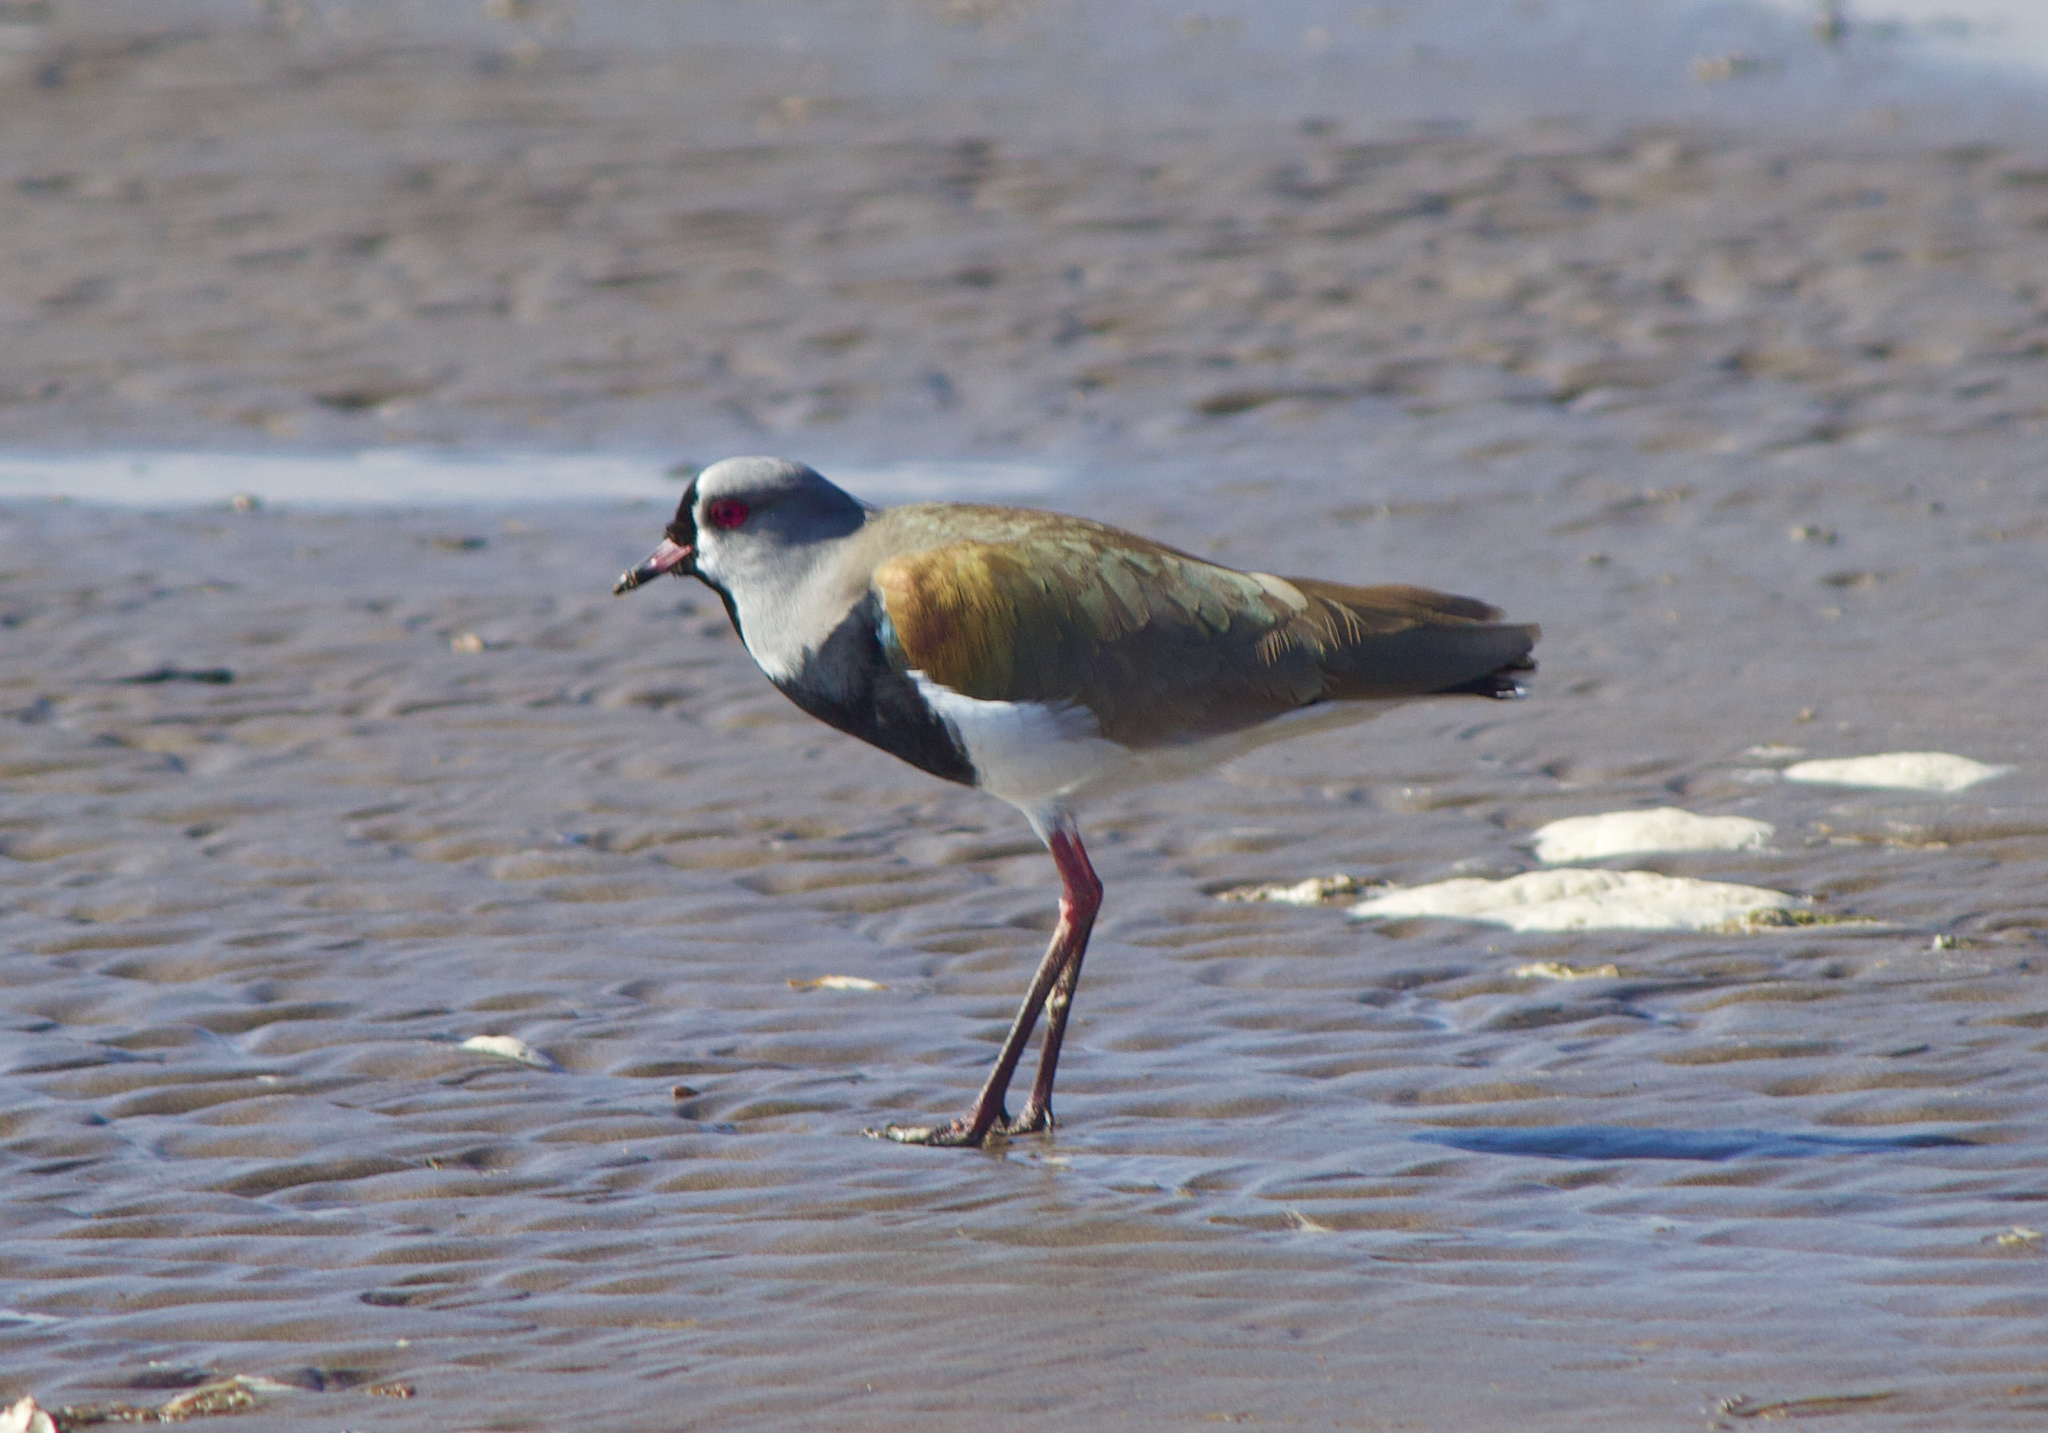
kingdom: Animalia
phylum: Chordata
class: Aves
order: Charadriiformes
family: Charadriidae
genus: Vanellus
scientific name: Vanellus chilensis
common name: Southern lapwing
